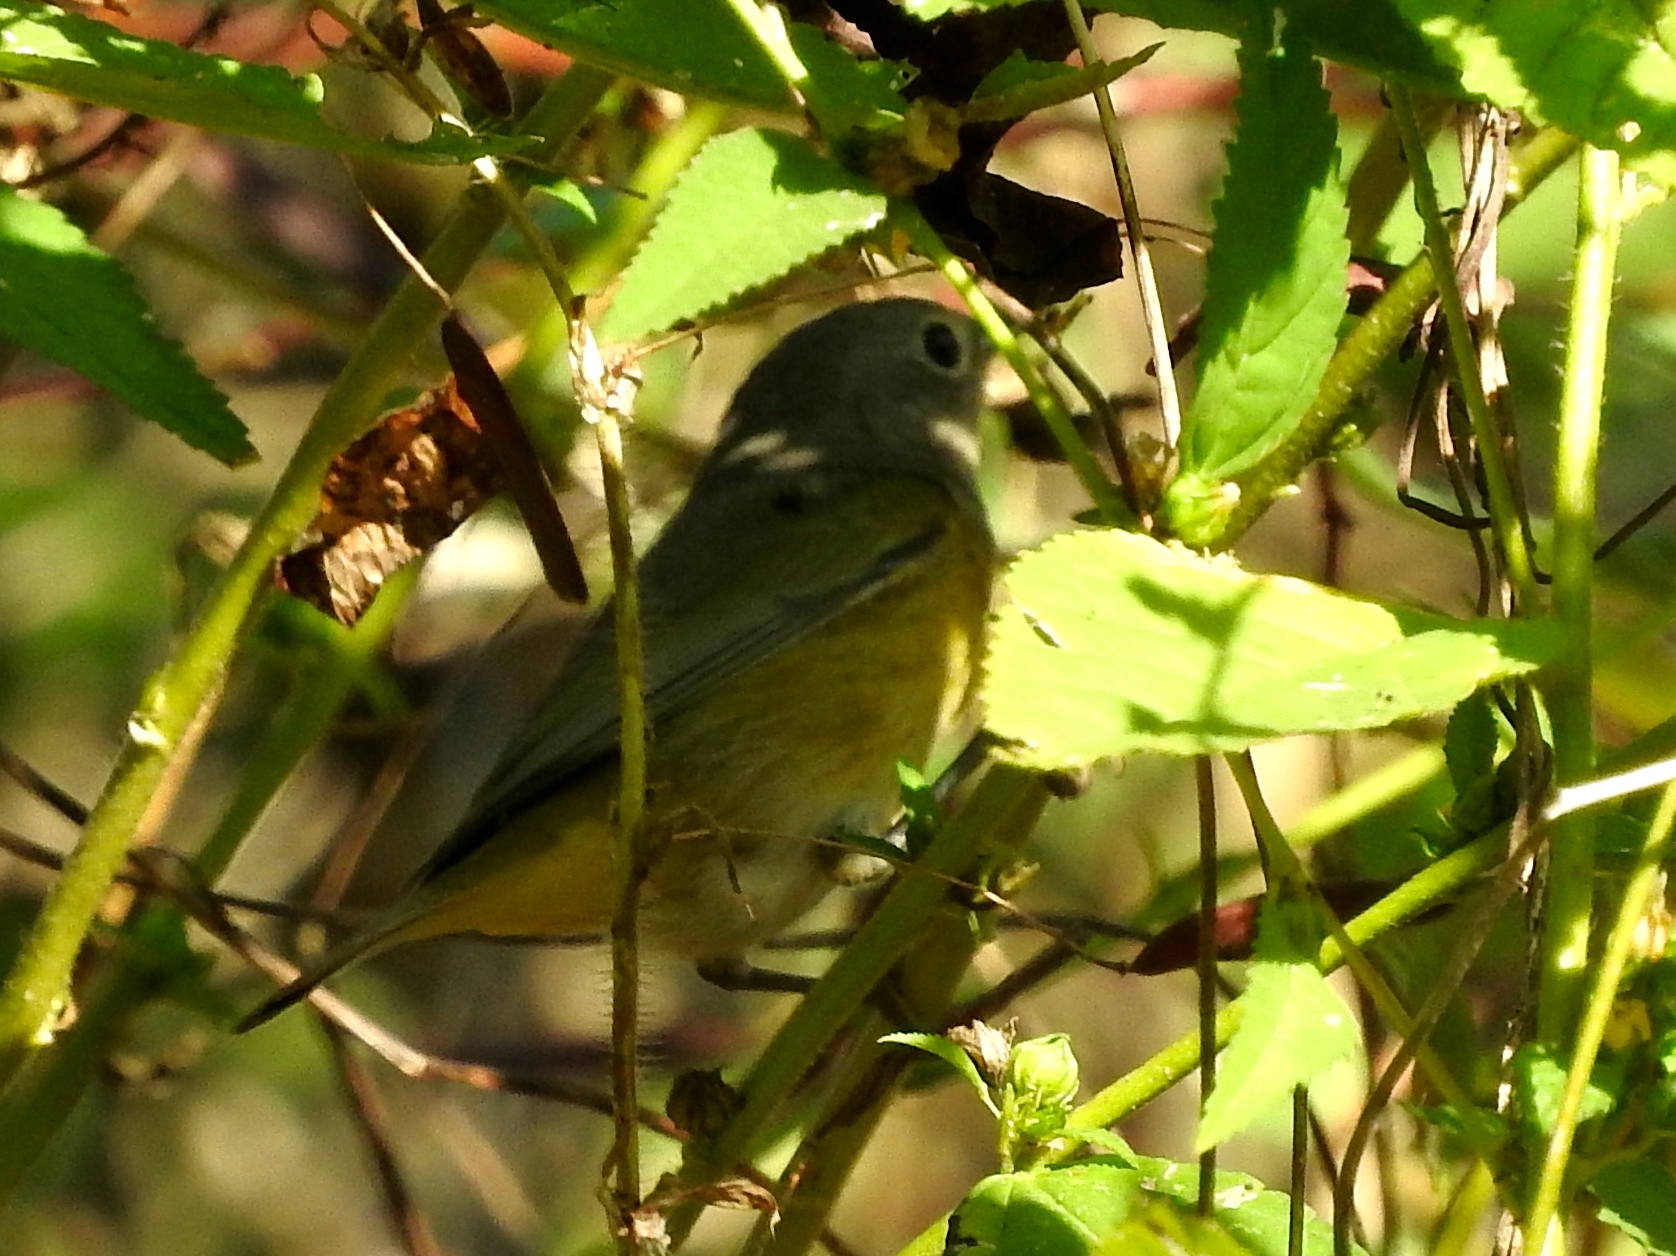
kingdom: Animalia
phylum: Chordata
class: Aves
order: Passeriformes
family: Parulidae
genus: Setophaga
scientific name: Setophaga petechia
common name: Yellow warbler
